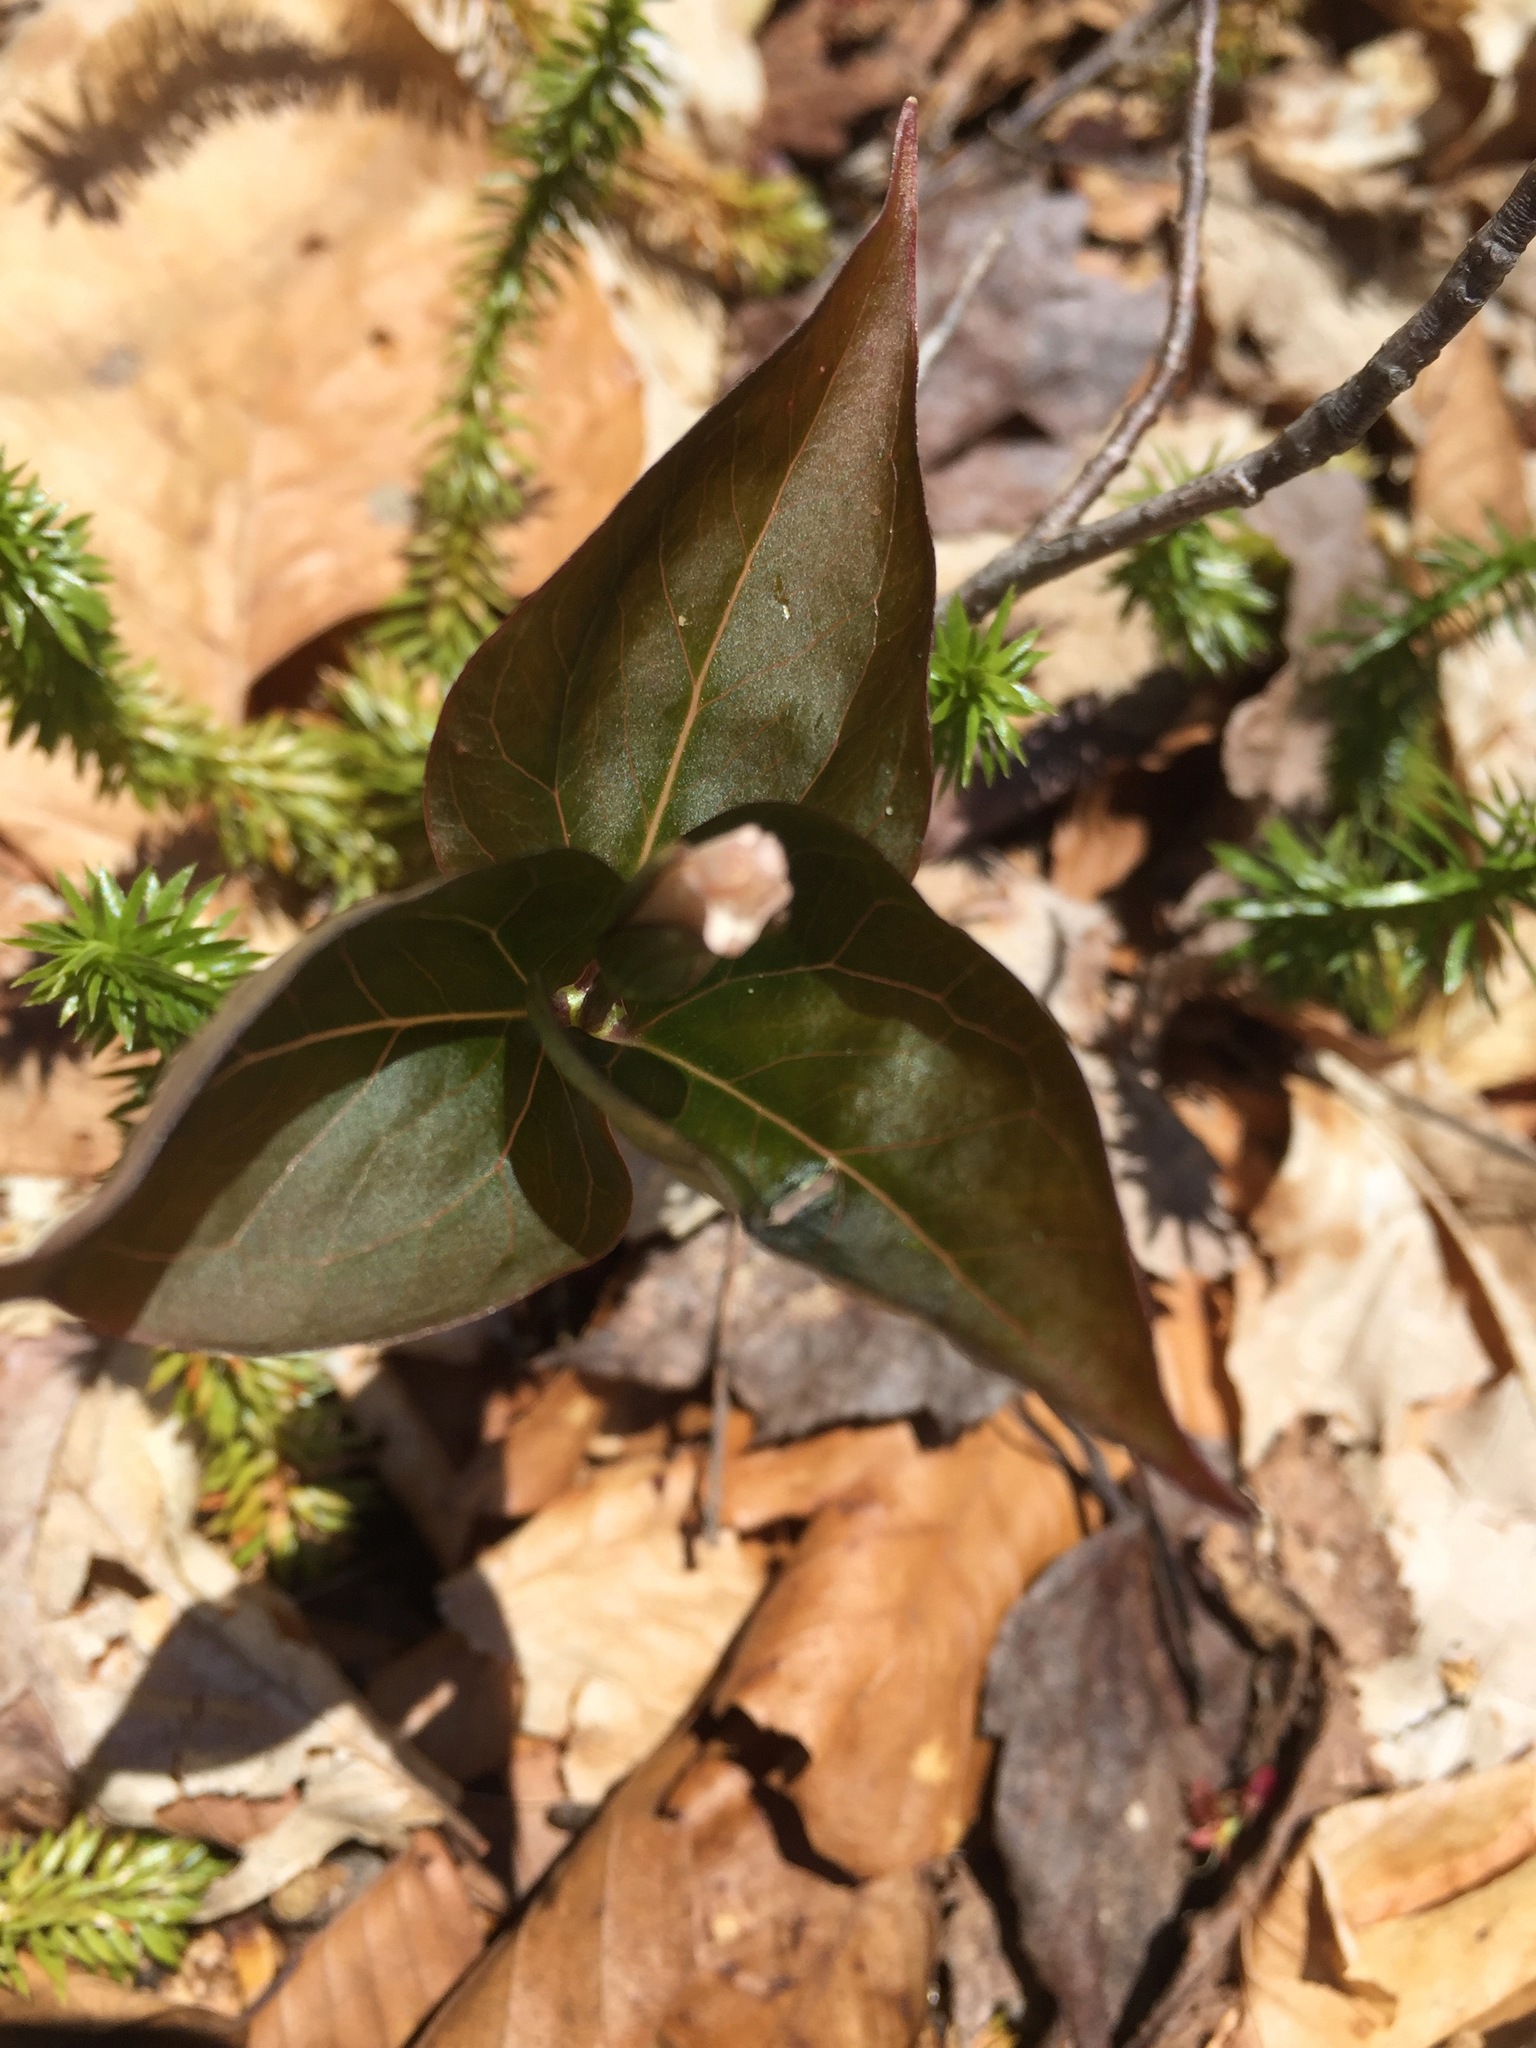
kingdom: Plantae
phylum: Tracheophyta
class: Liliopsida
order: Liliales
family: Melanthiaceae
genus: Trillium
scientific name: Trillium undulatum
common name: Paint trillium
